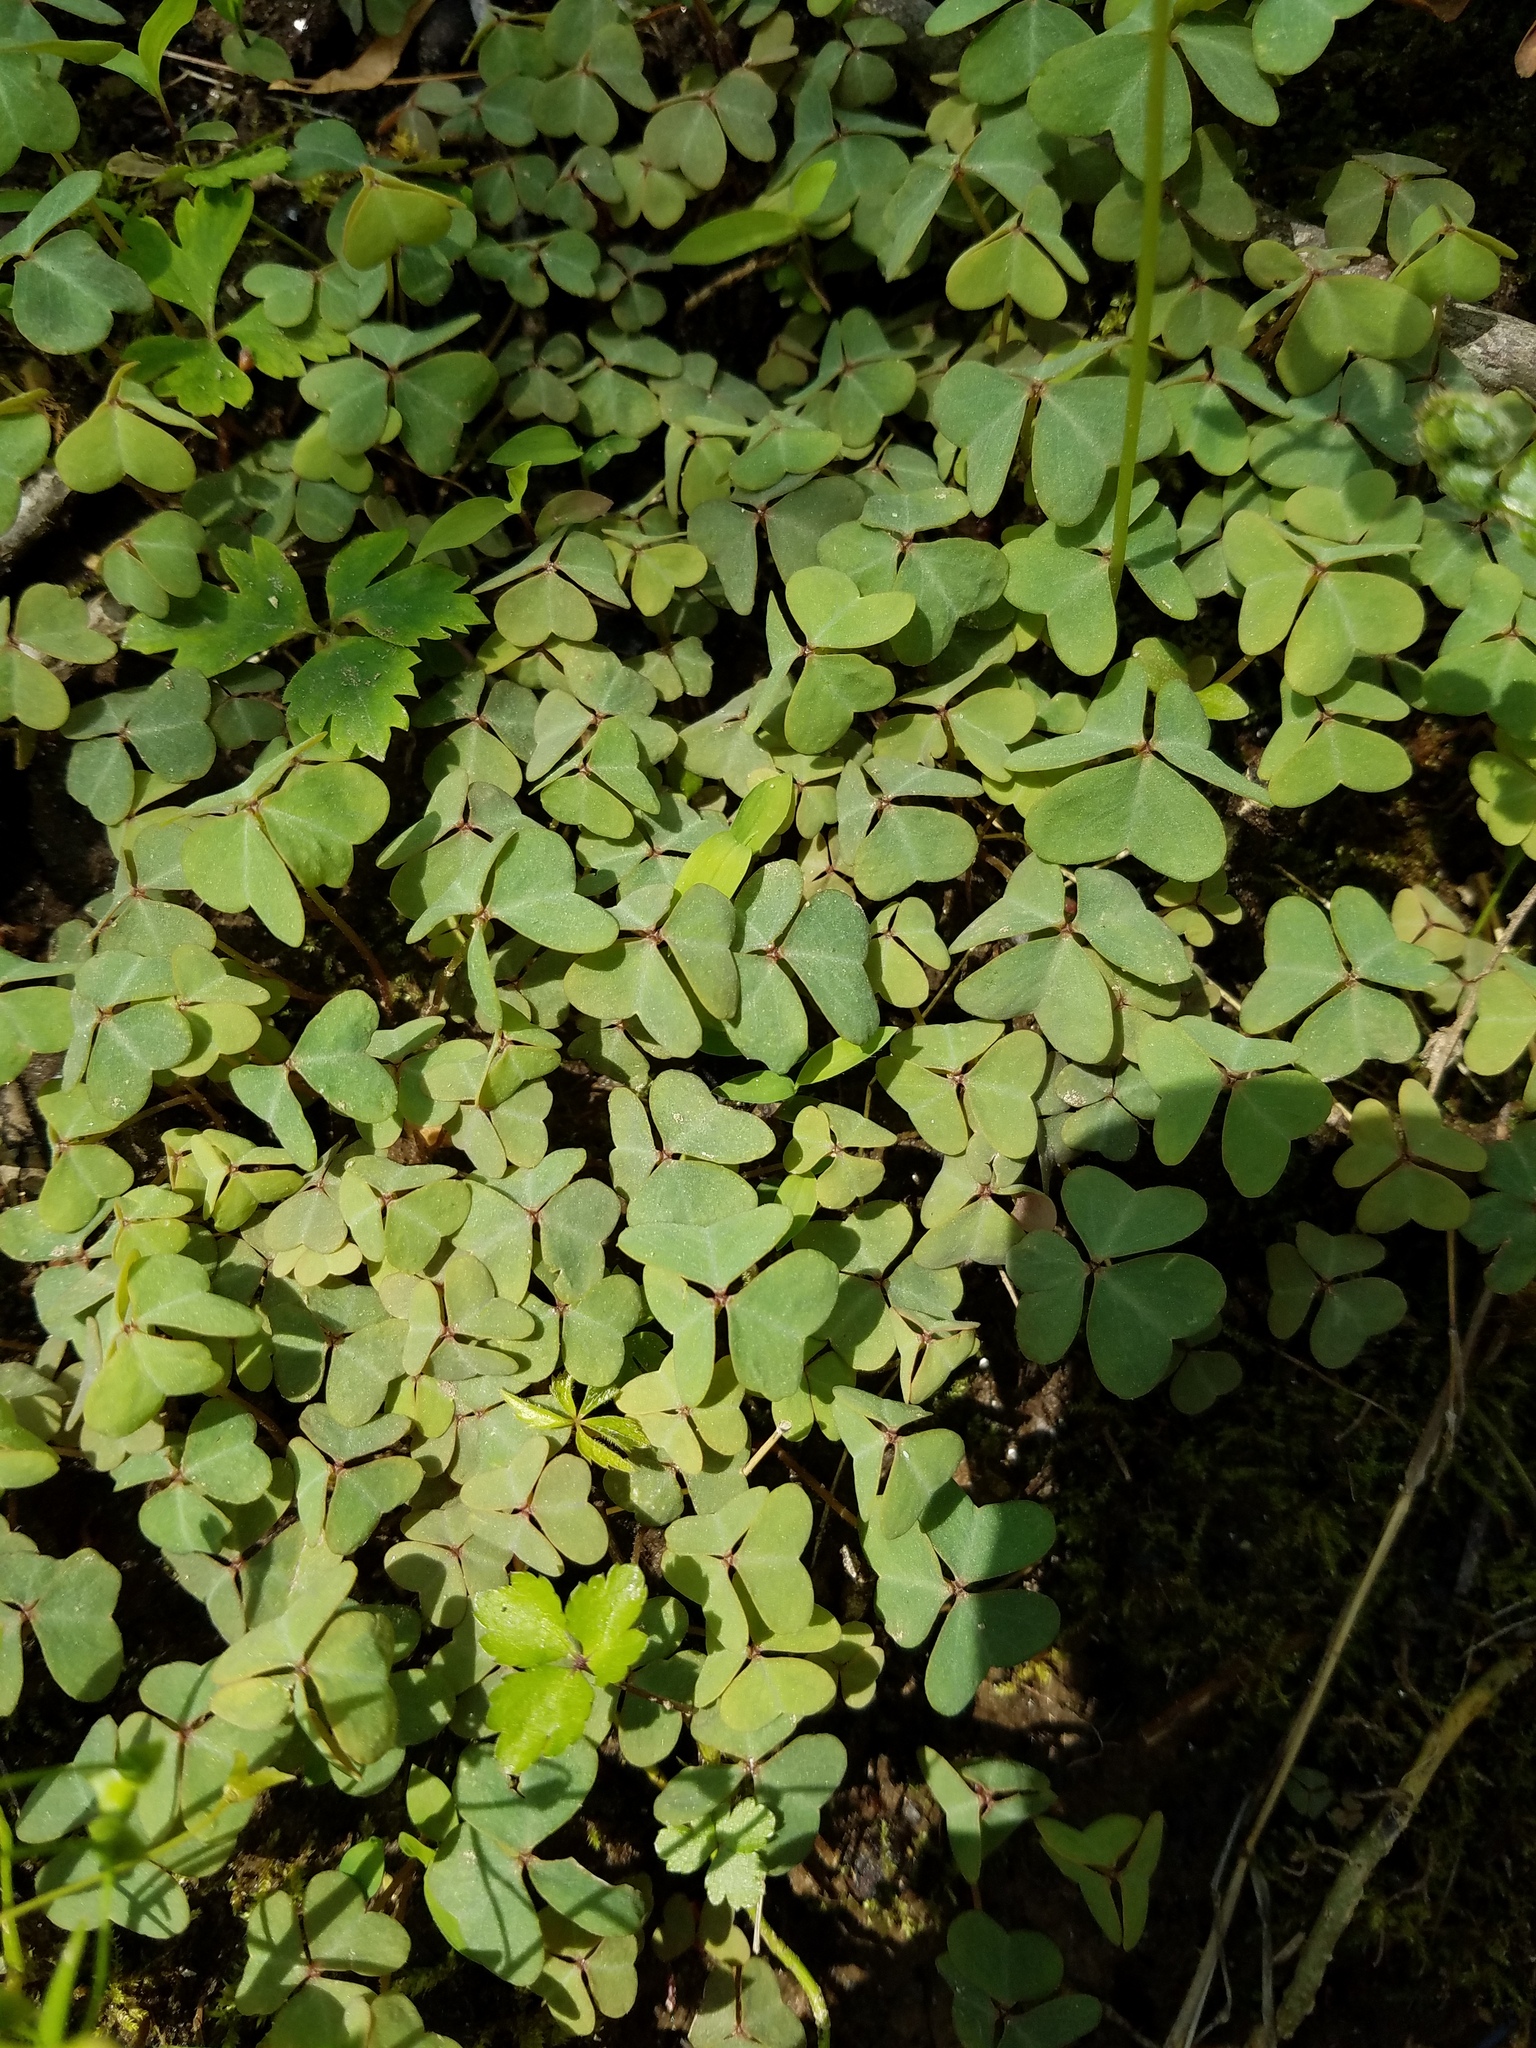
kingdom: Plantae
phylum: Tracheophyta
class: Magnoliopsida
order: Oxalidales
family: Oxalidaceae
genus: Oxalis
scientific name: Oxalis violacea
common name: Violet wood-sorrel
